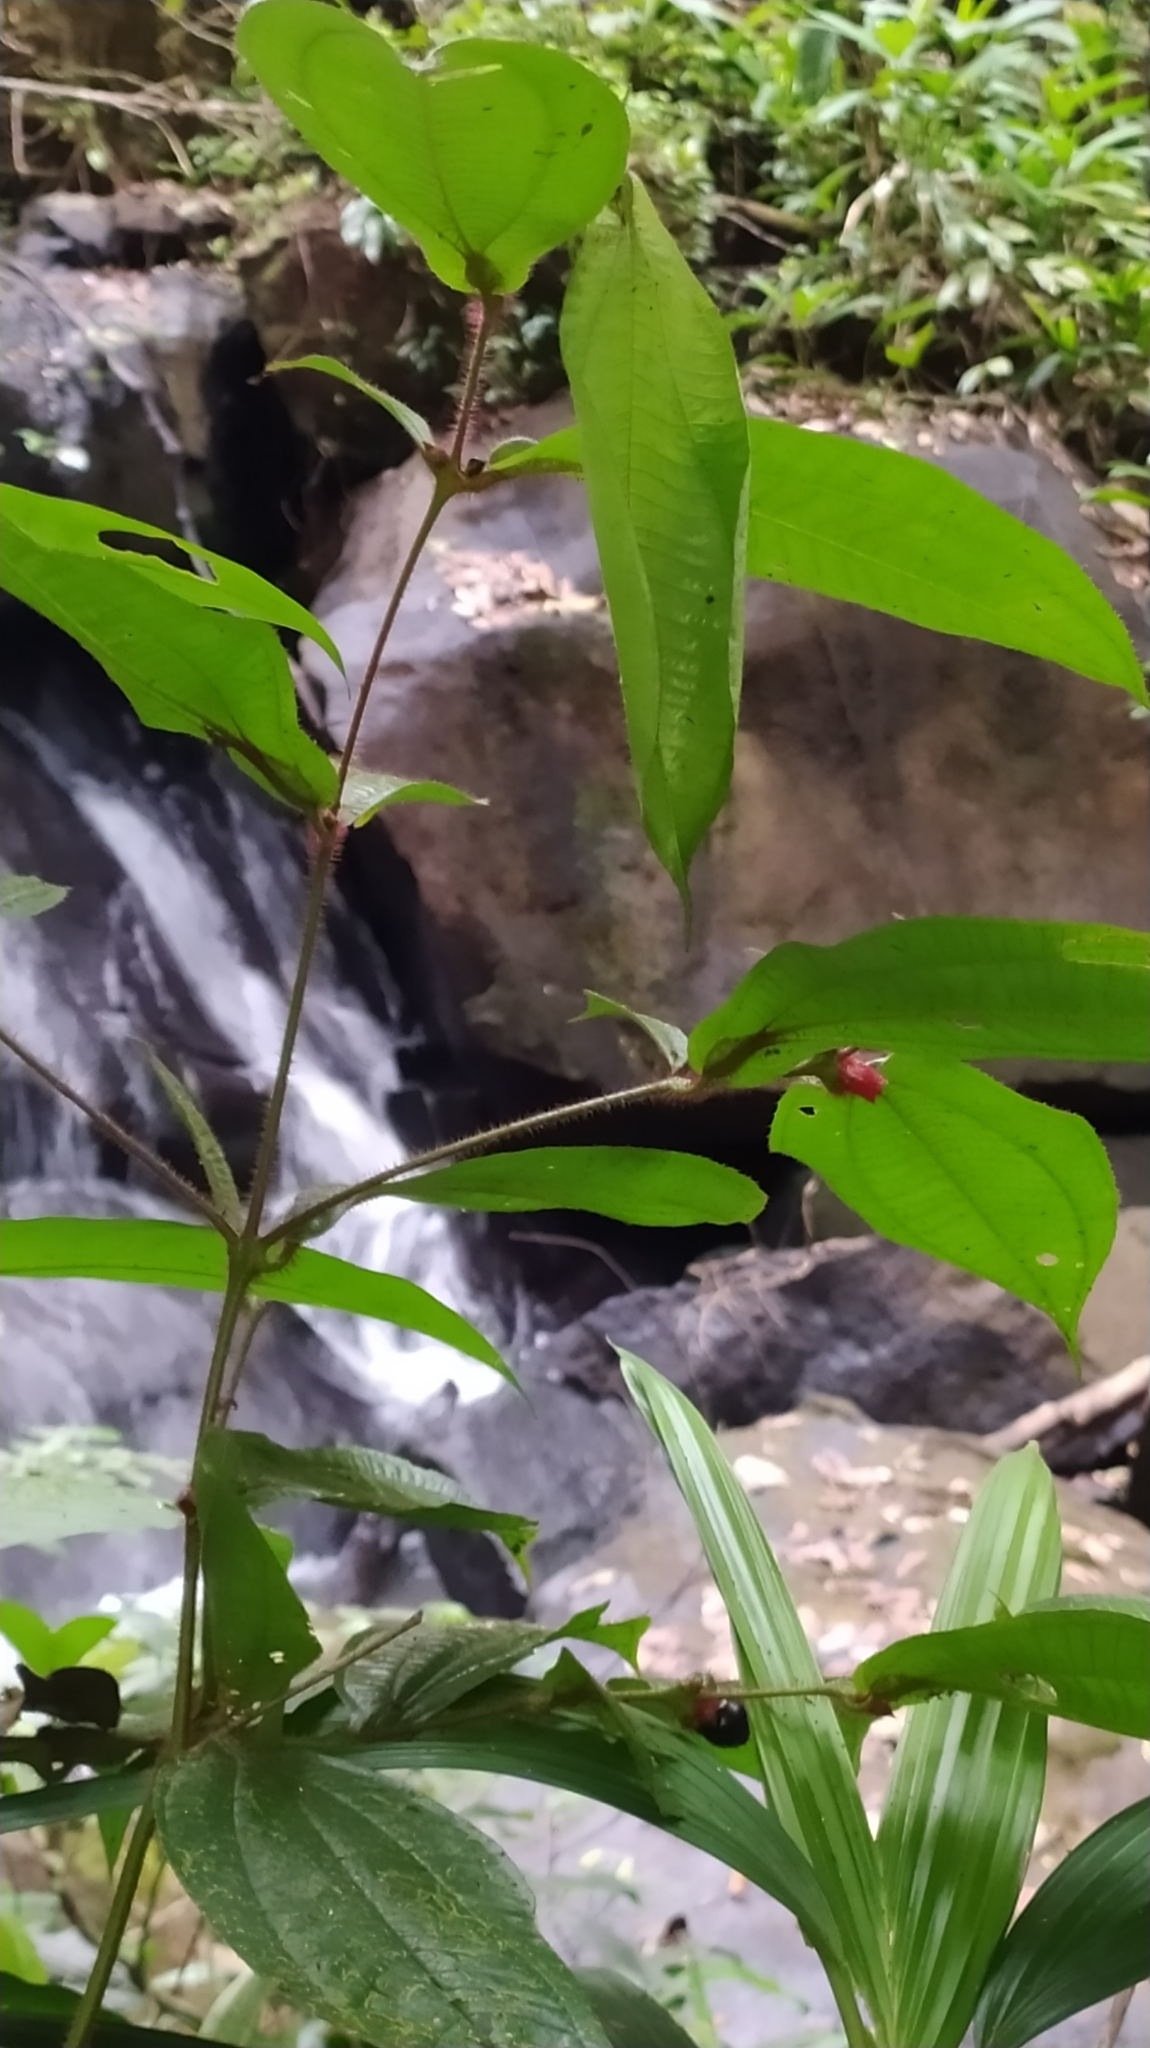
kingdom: Plantae
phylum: Tracheophyta
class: Magnoliopsida
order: Myrtales
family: Melastomataceae
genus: Miconia
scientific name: Miconia mayeta
